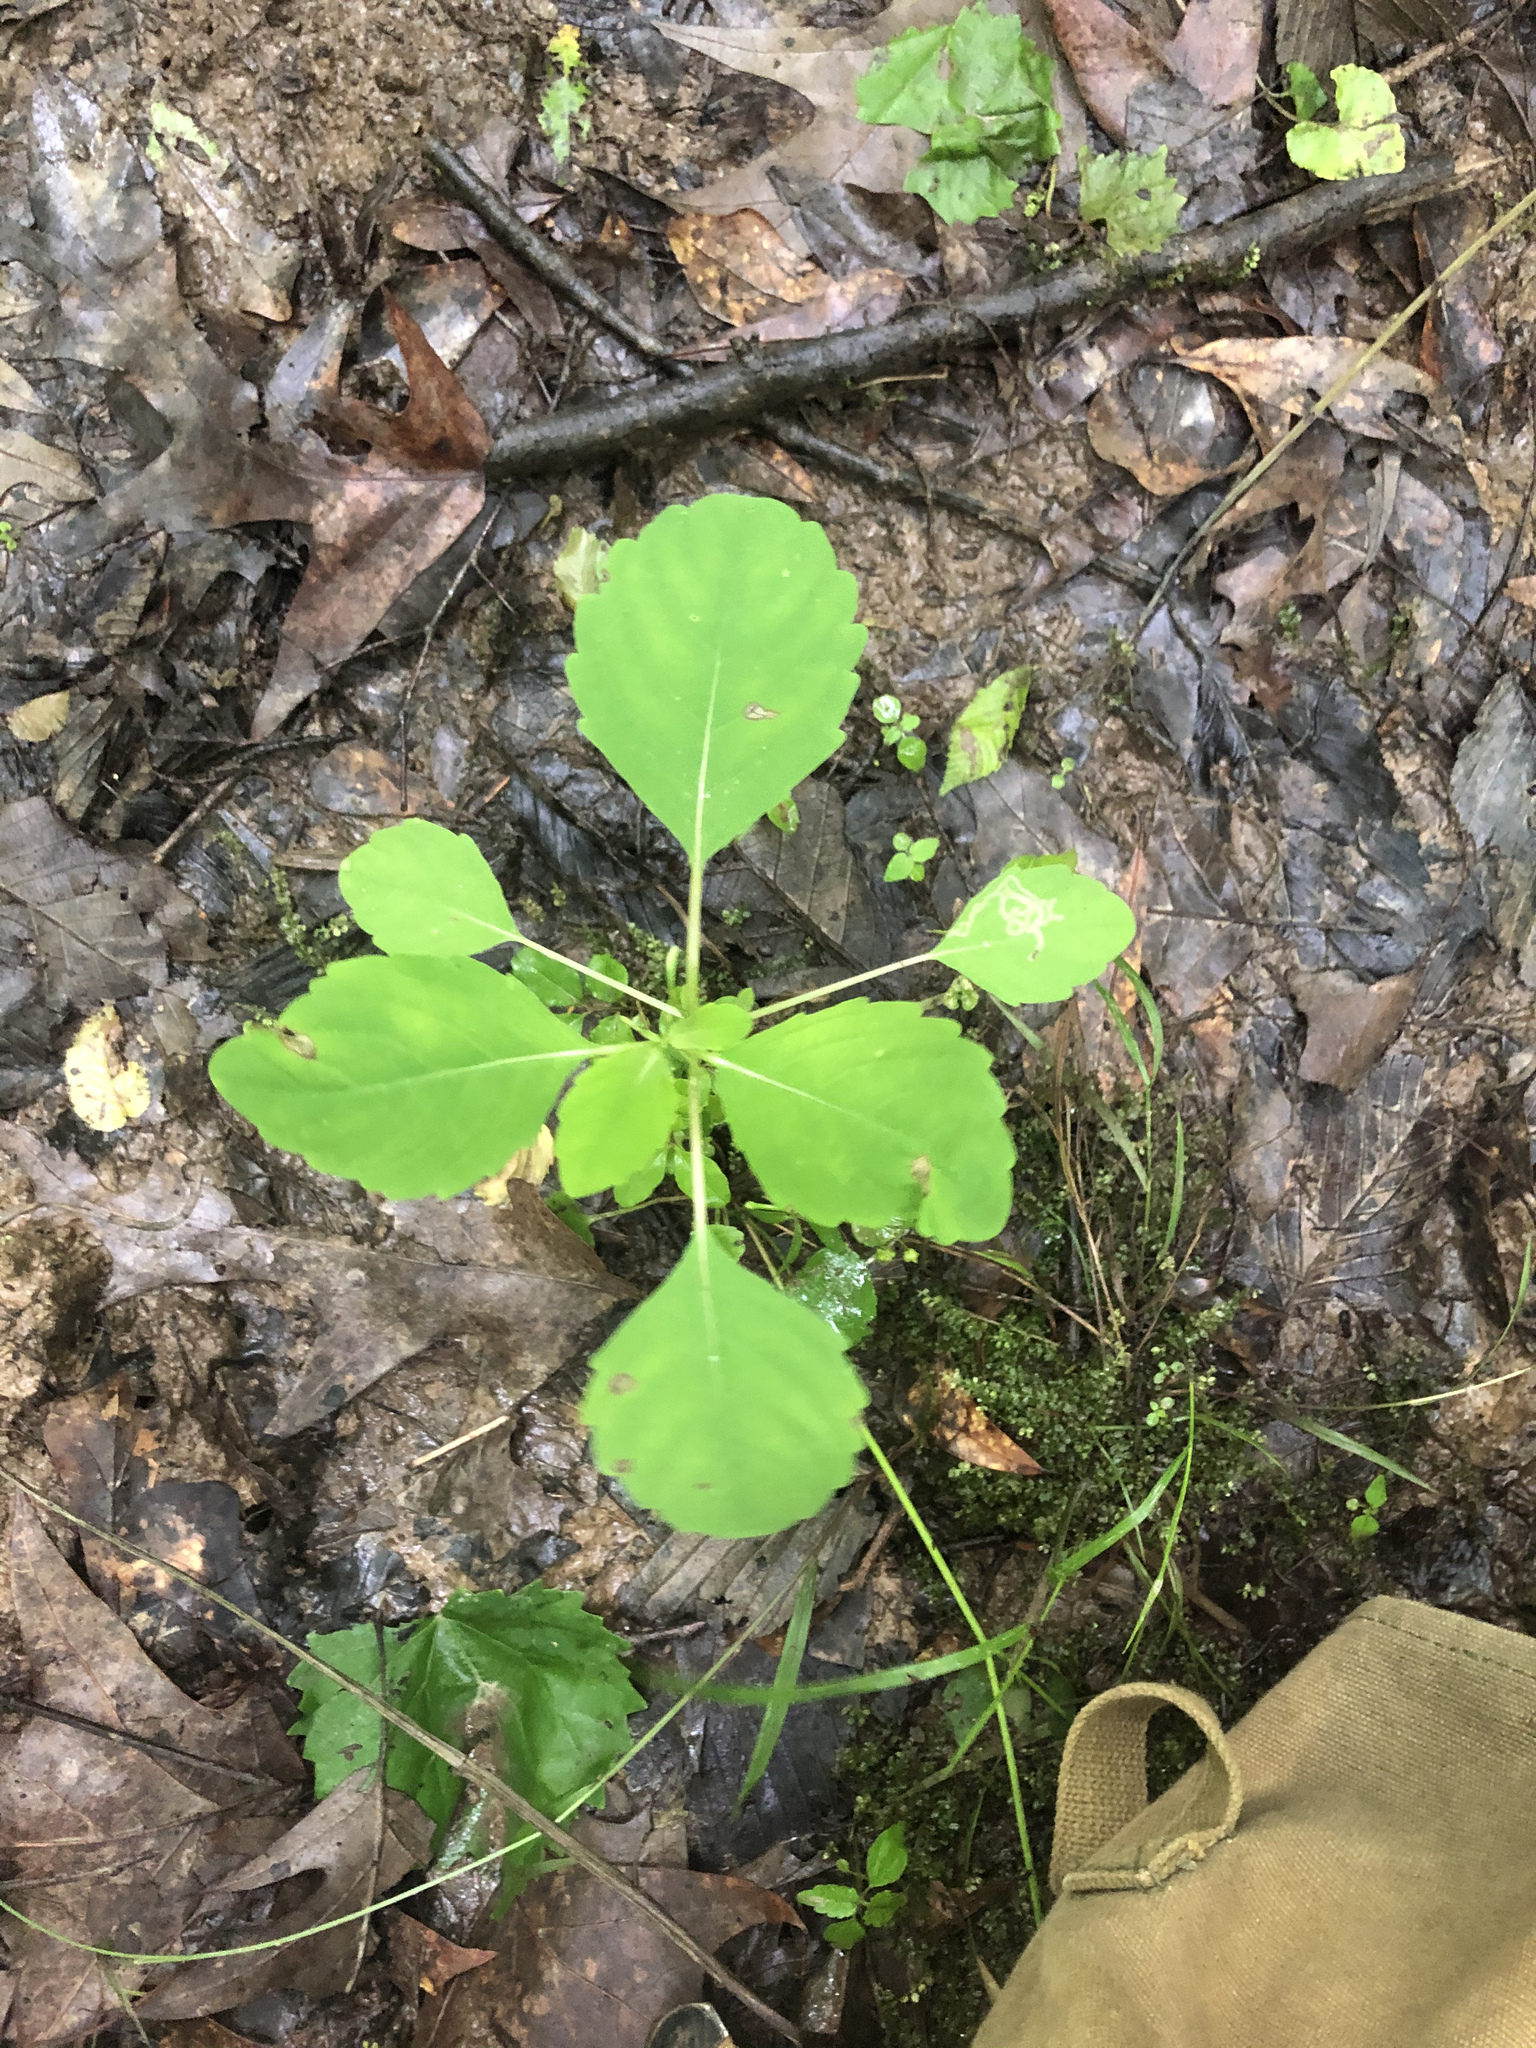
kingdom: Plantae
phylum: Tracheophyta
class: Magnoliopsida
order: Ericales
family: Balsaminaceae
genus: Impatiens
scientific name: Impatiens capensis
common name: Orange balsam
